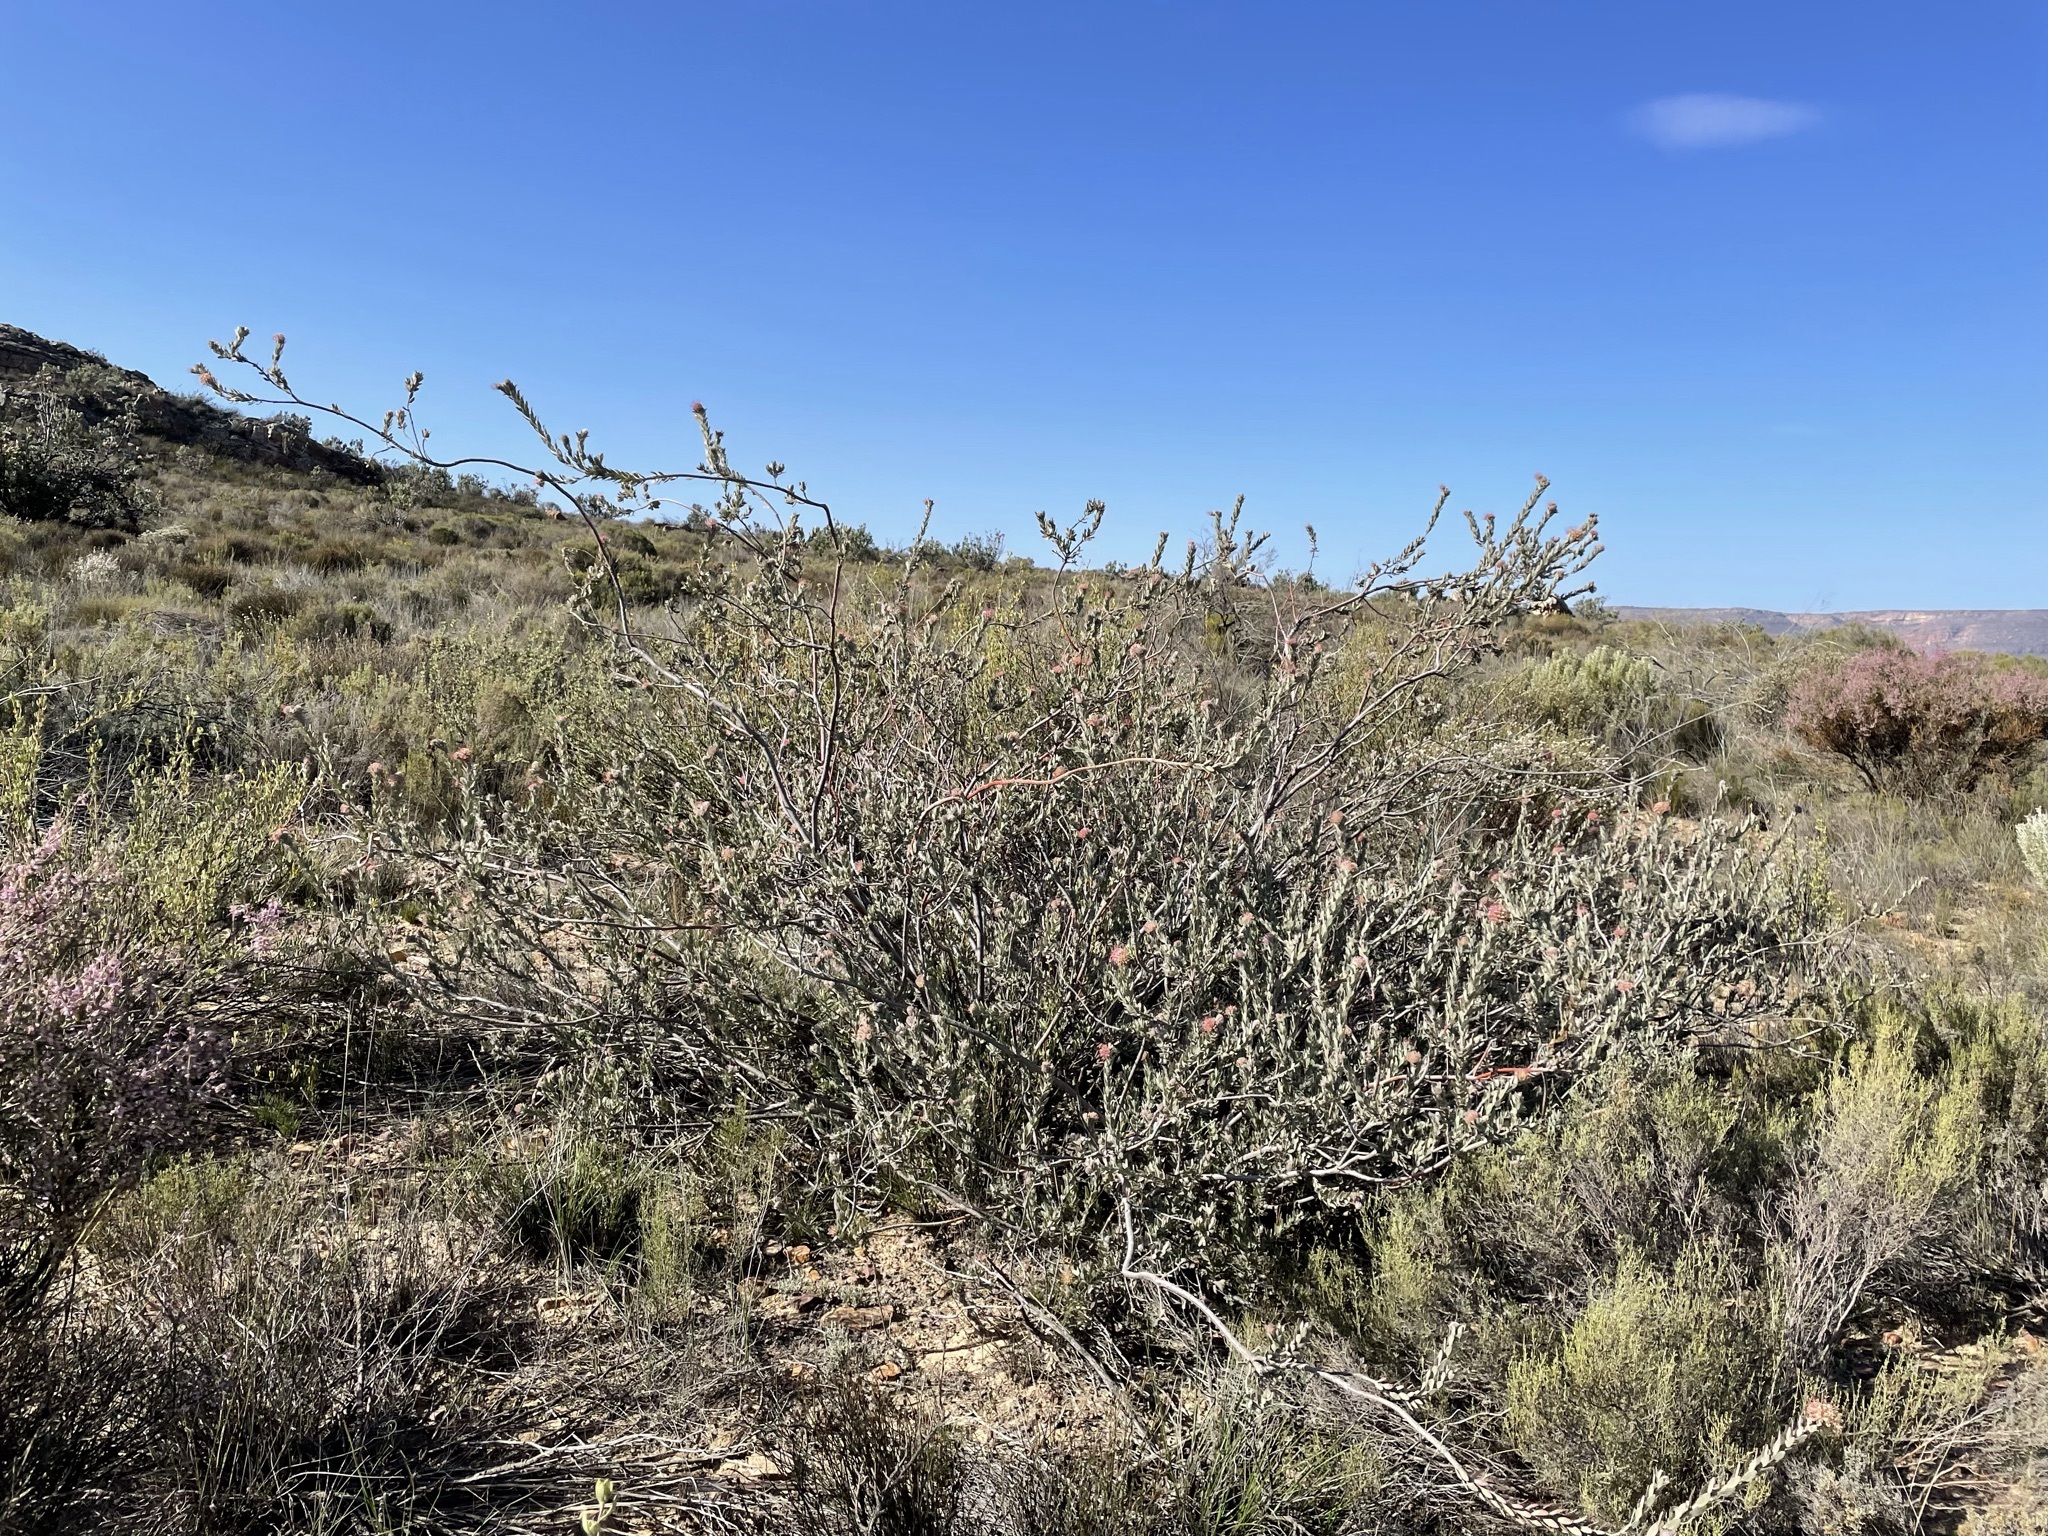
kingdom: Plantae
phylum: Tracheophyta
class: Magnoliopsida
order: Proteales
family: Proteaceae
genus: Leucospermum
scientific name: Leucospermum calligerum
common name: Arid pincushion
